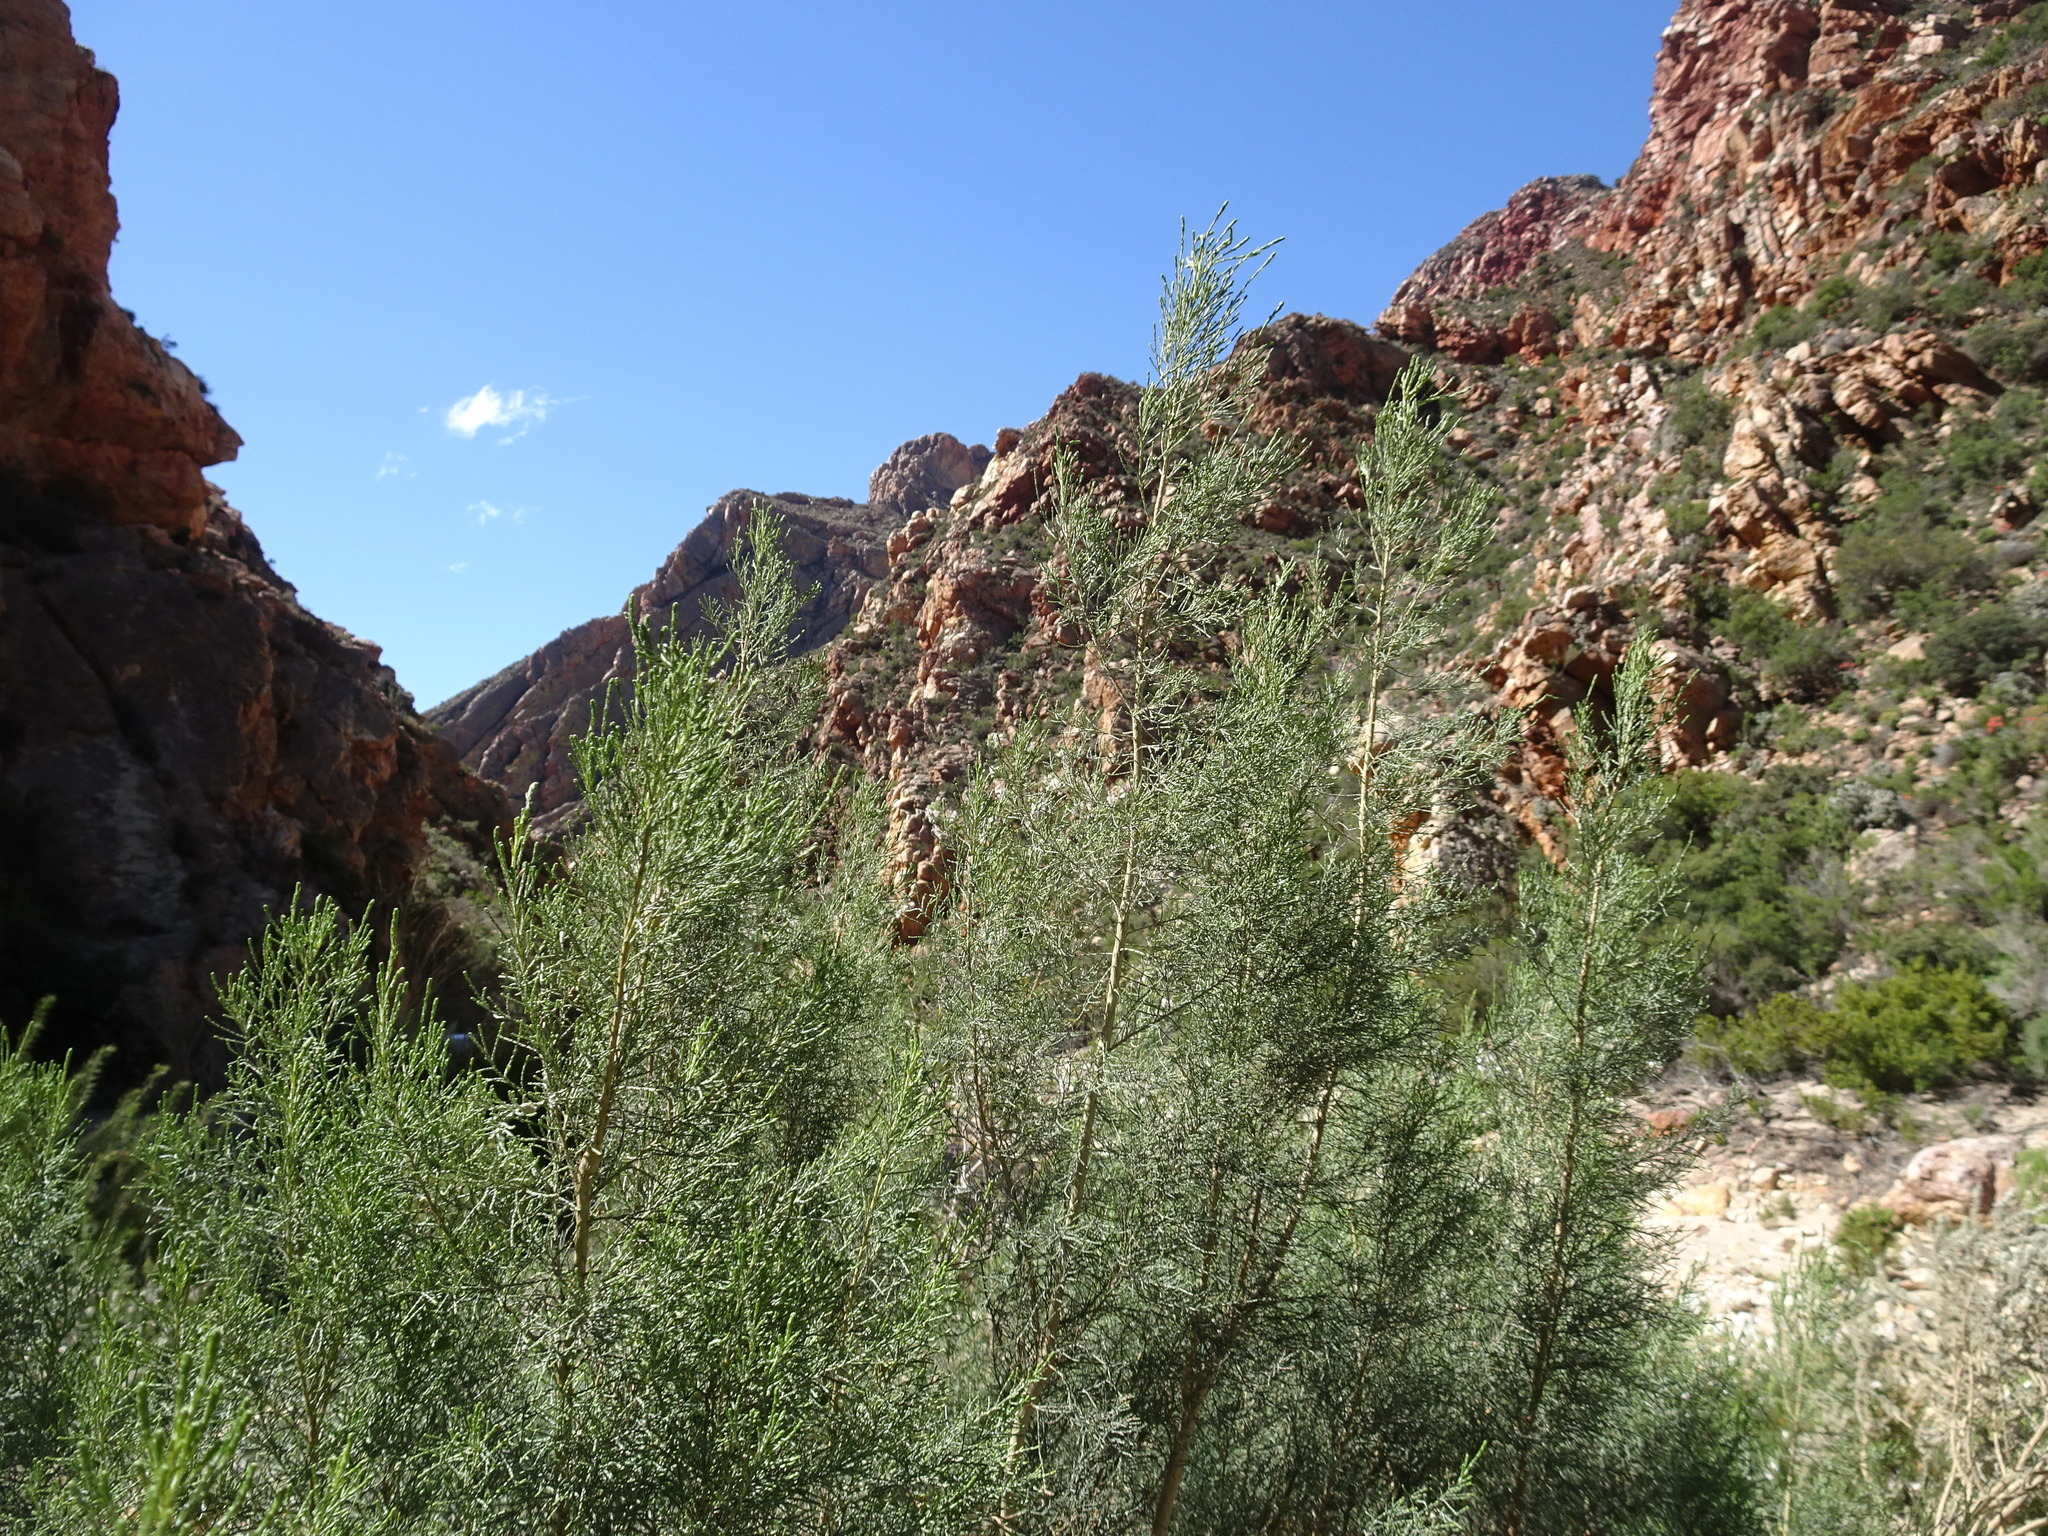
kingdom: Plantae
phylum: Tracheophyta
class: Magnoliopsida
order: Asterales
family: Asteraceae
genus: Dicerothamnus
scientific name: Dicerothamnus rhinocerotis
